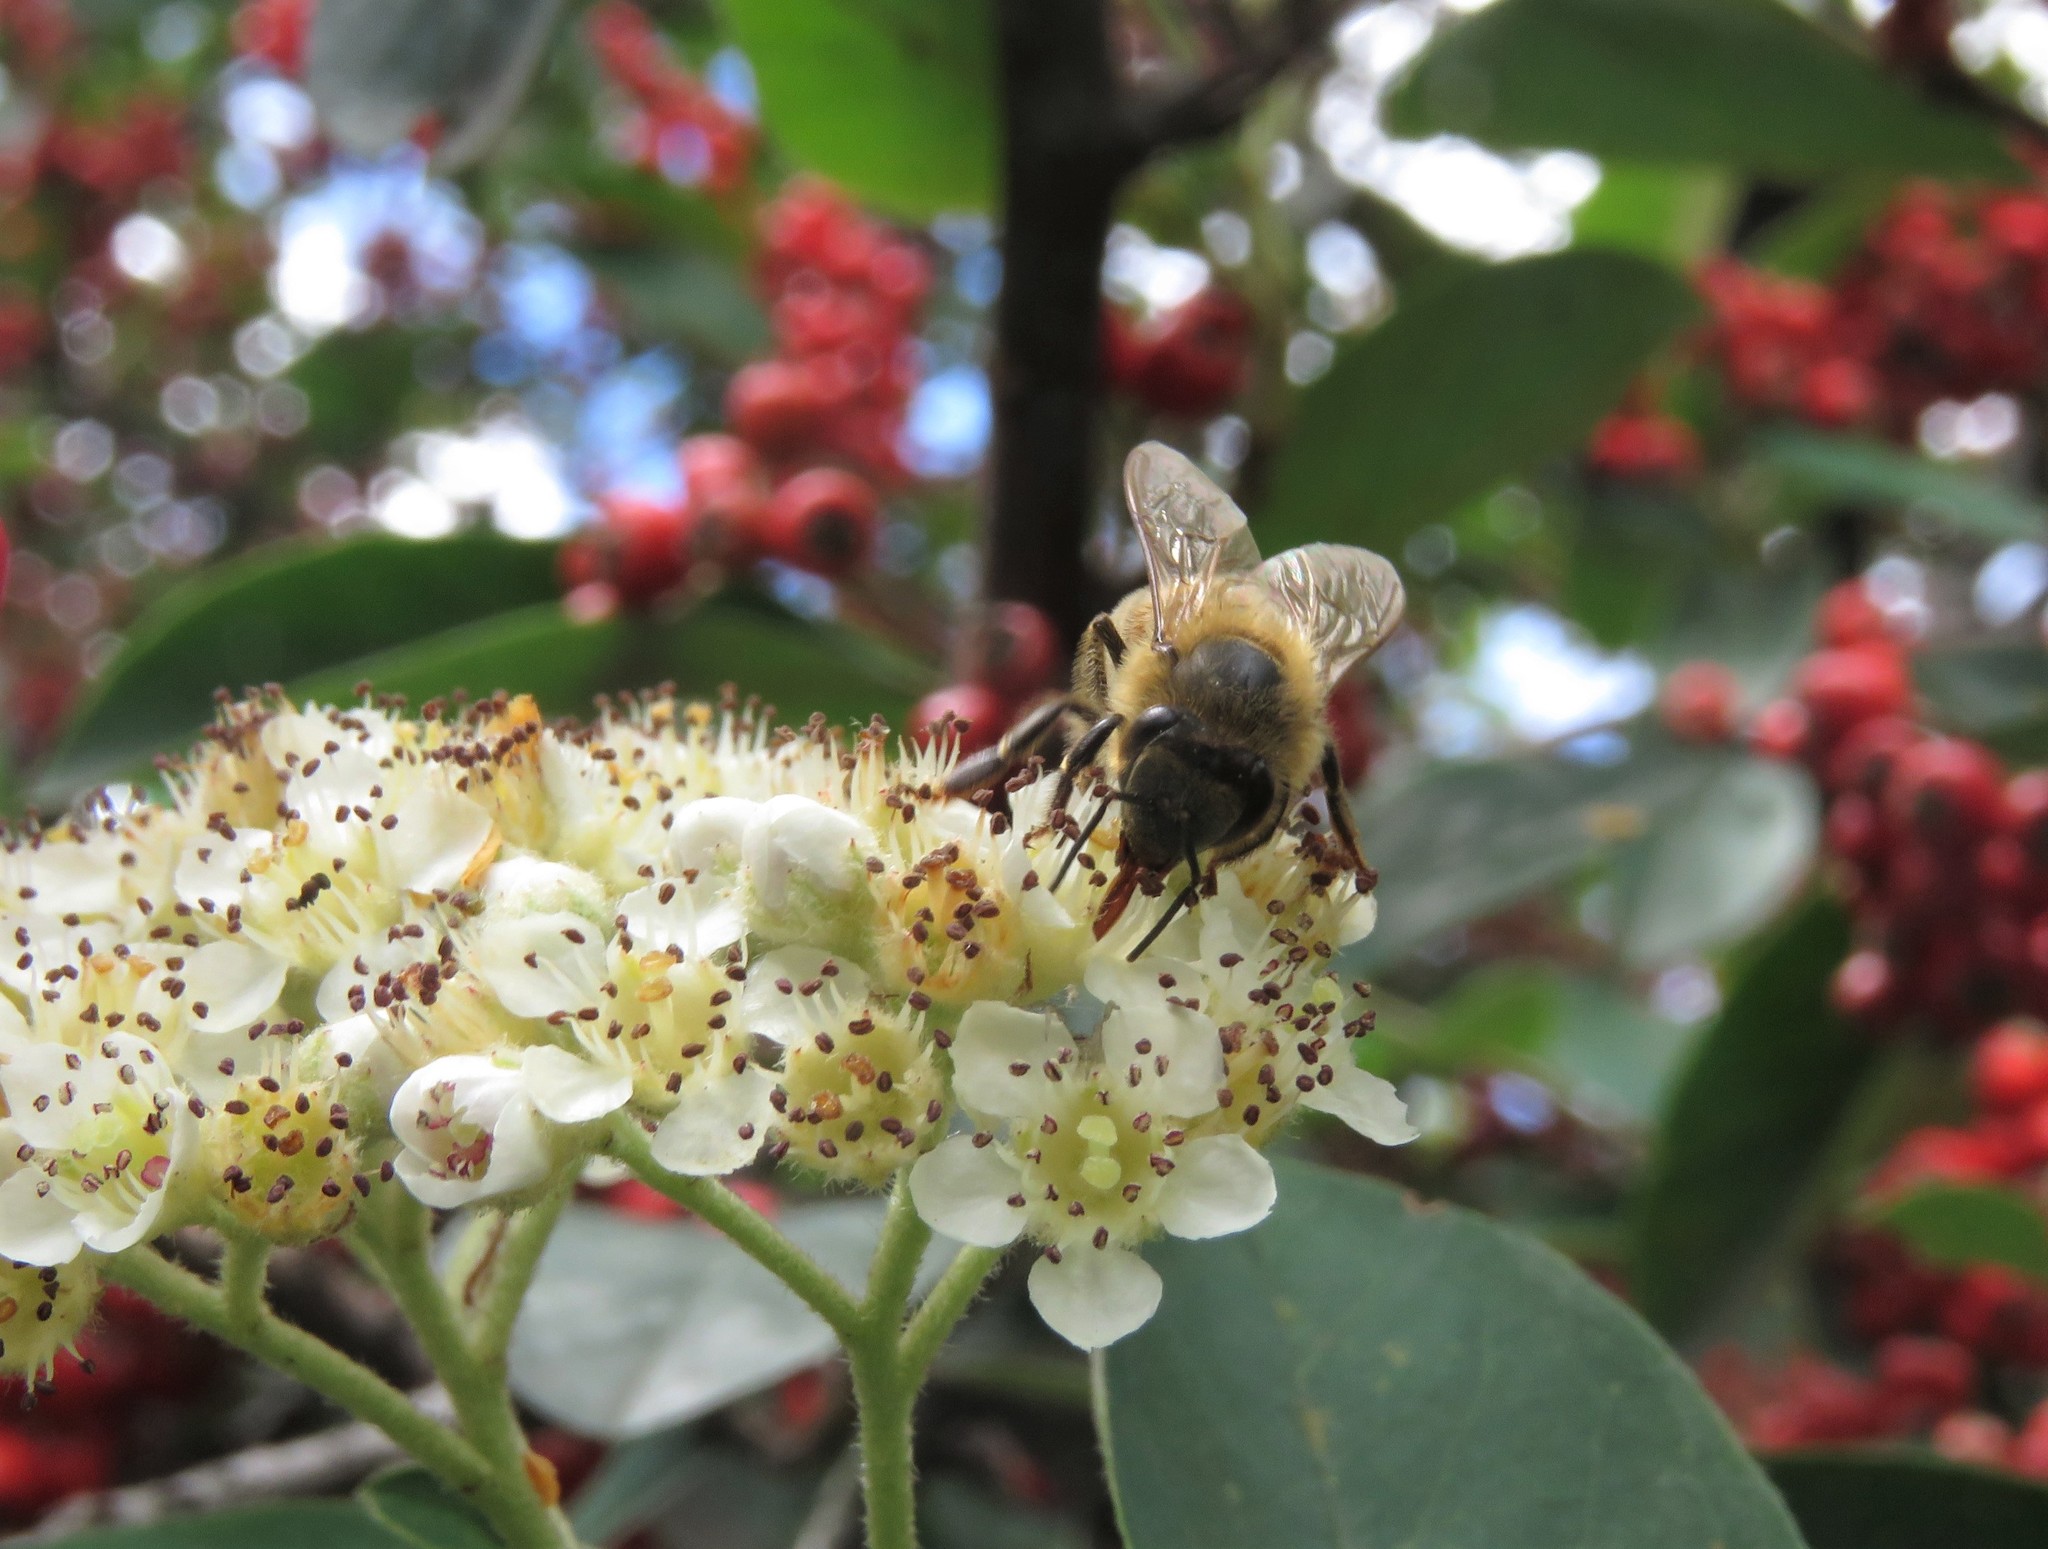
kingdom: Animalia
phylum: Arthropoda
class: Insecta
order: Hymenoptera
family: Apidae
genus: Apis
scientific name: Apis mellifera
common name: Honey bee
